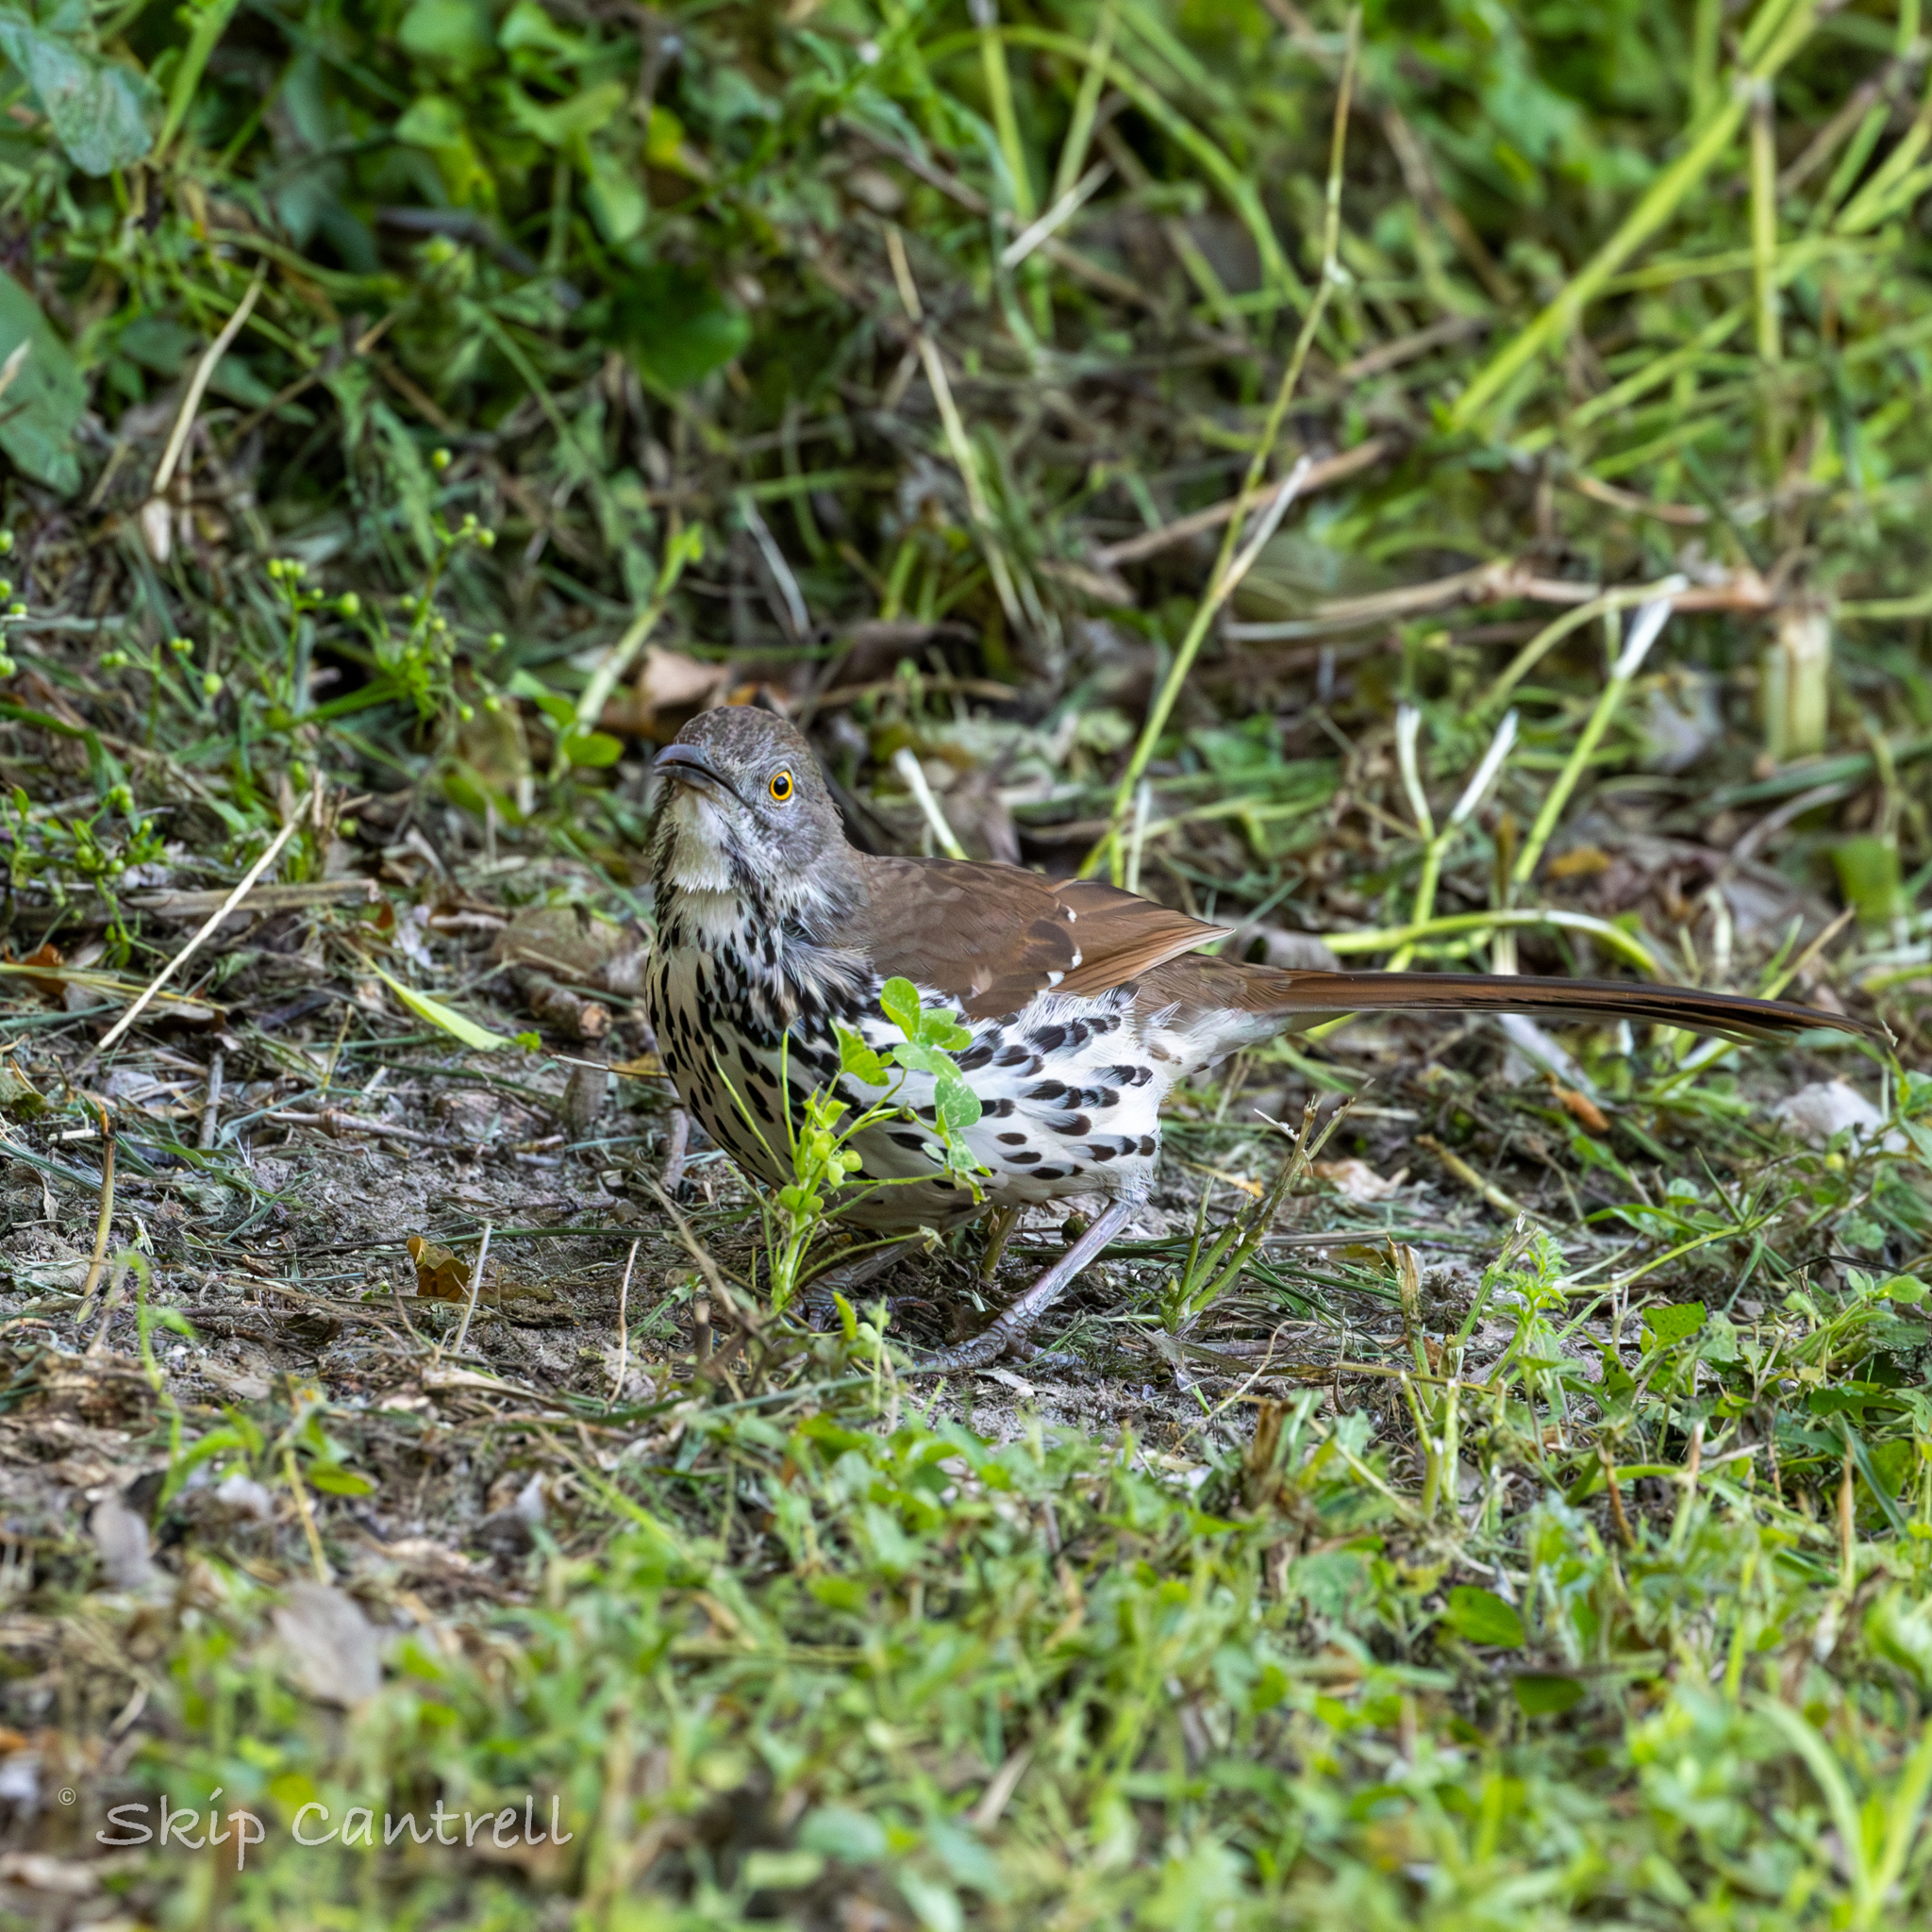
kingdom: Animalia
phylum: Chordata
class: Aves
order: Passeriformes
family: Mimidae
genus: Toxostoma
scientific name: Toxostoma longirostre
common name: Long-billed thrasher
